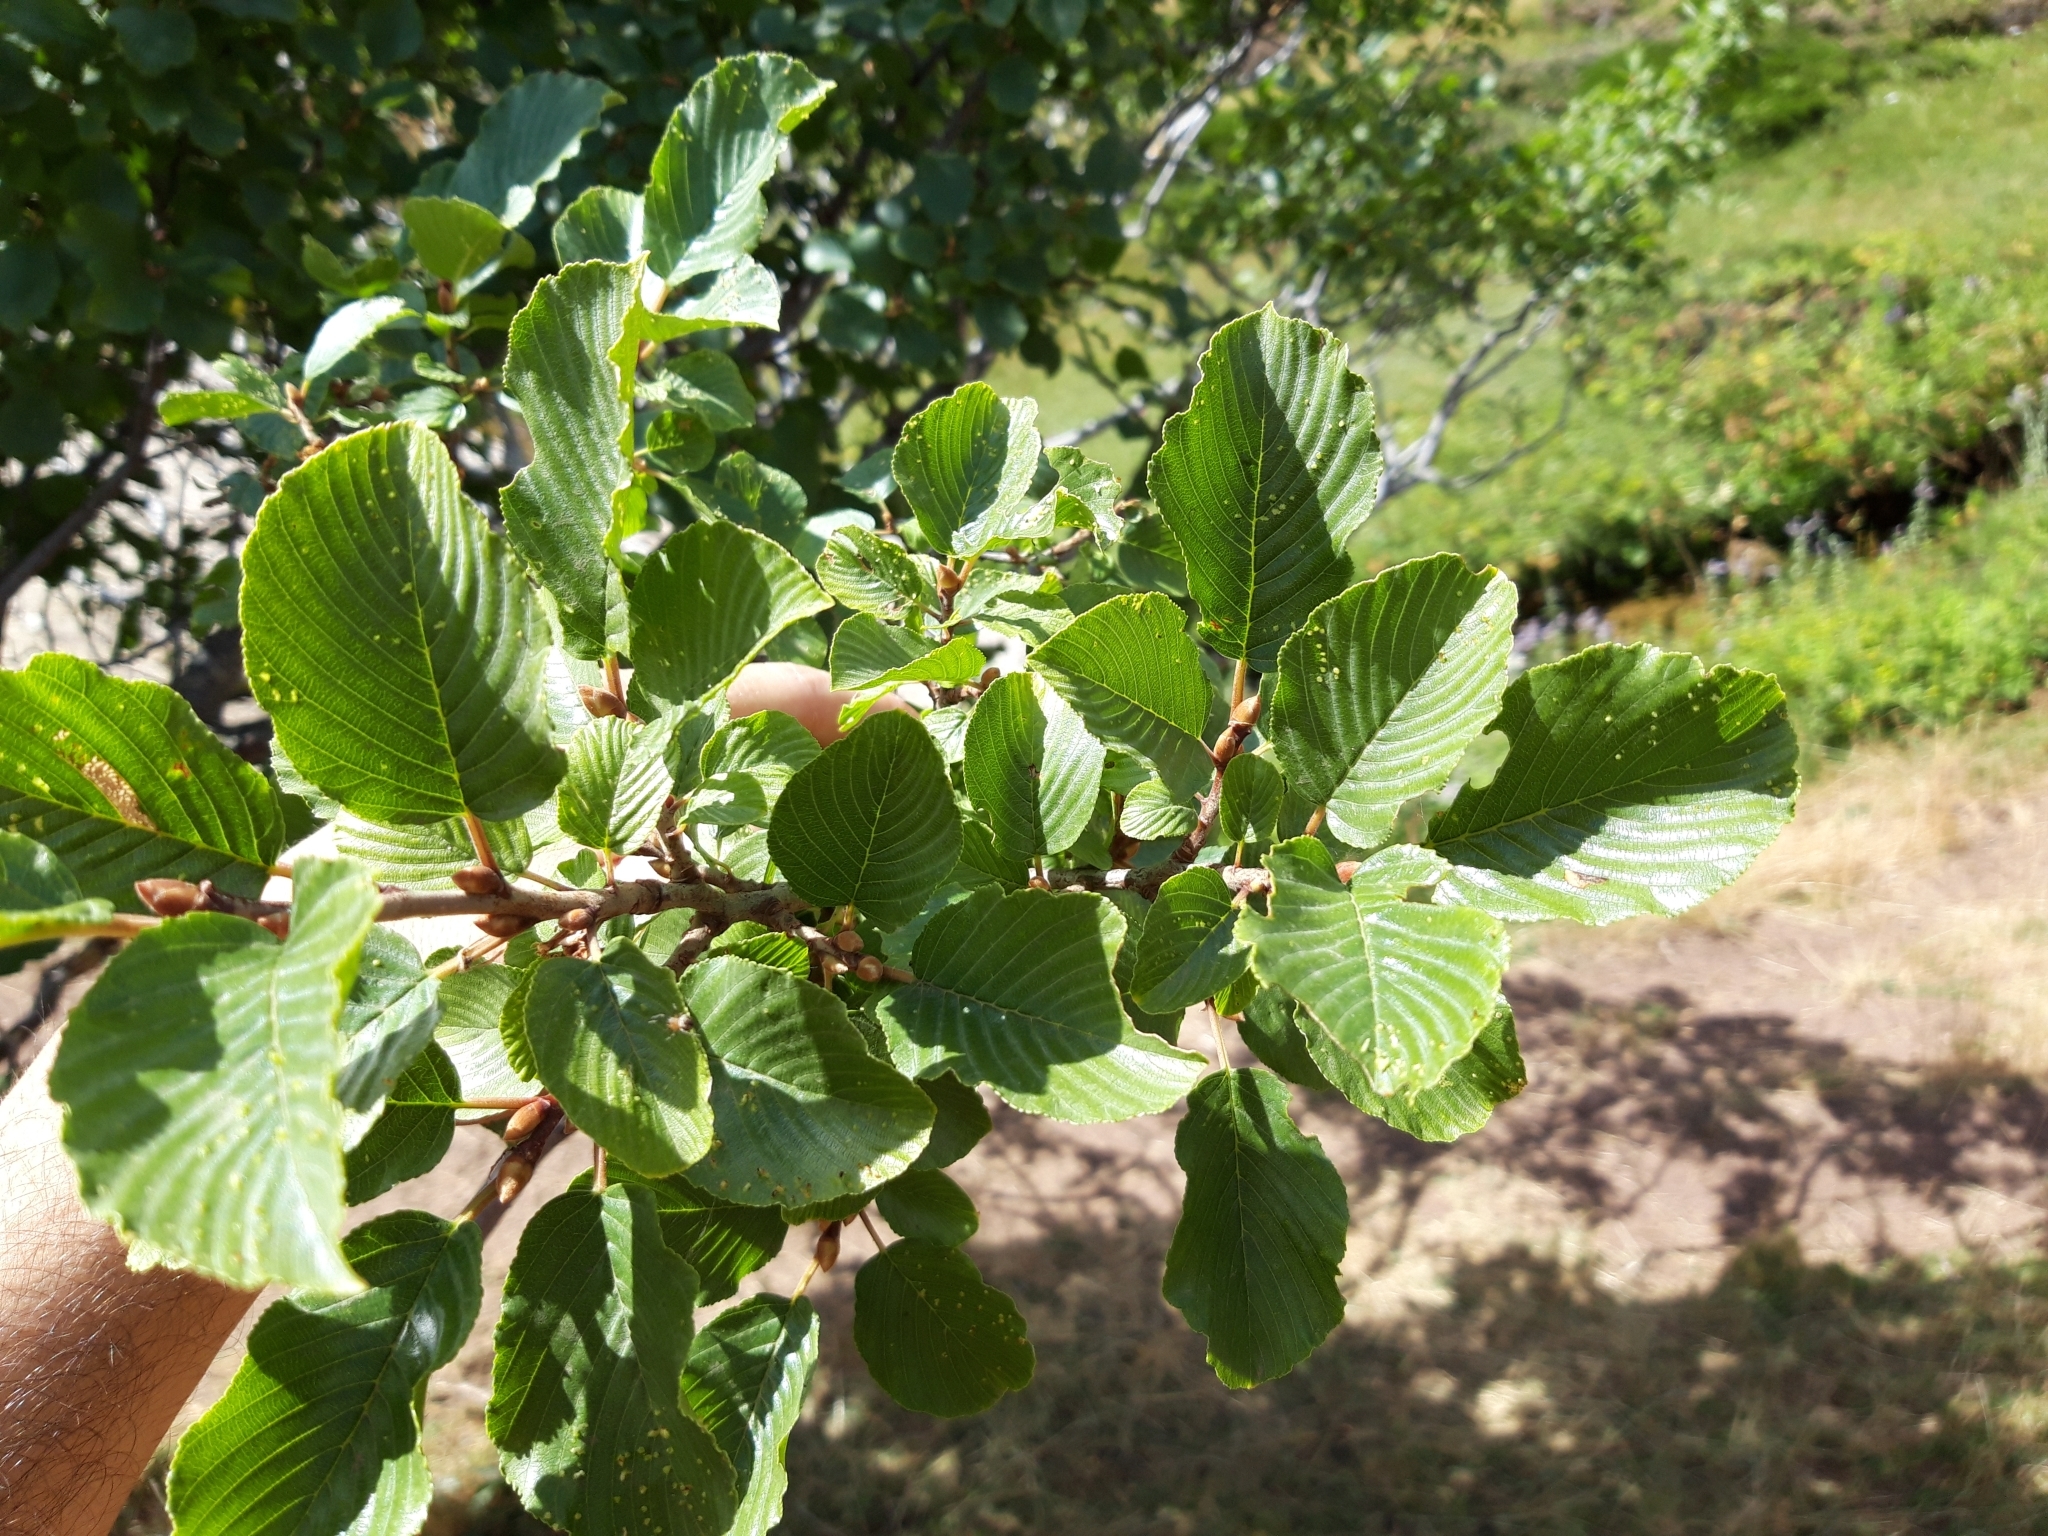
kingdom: Plantae
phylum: Tracheophyta
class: Magnoliopsida
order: Rosales
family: Rhamnaceae
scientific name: Rhamnaceae
